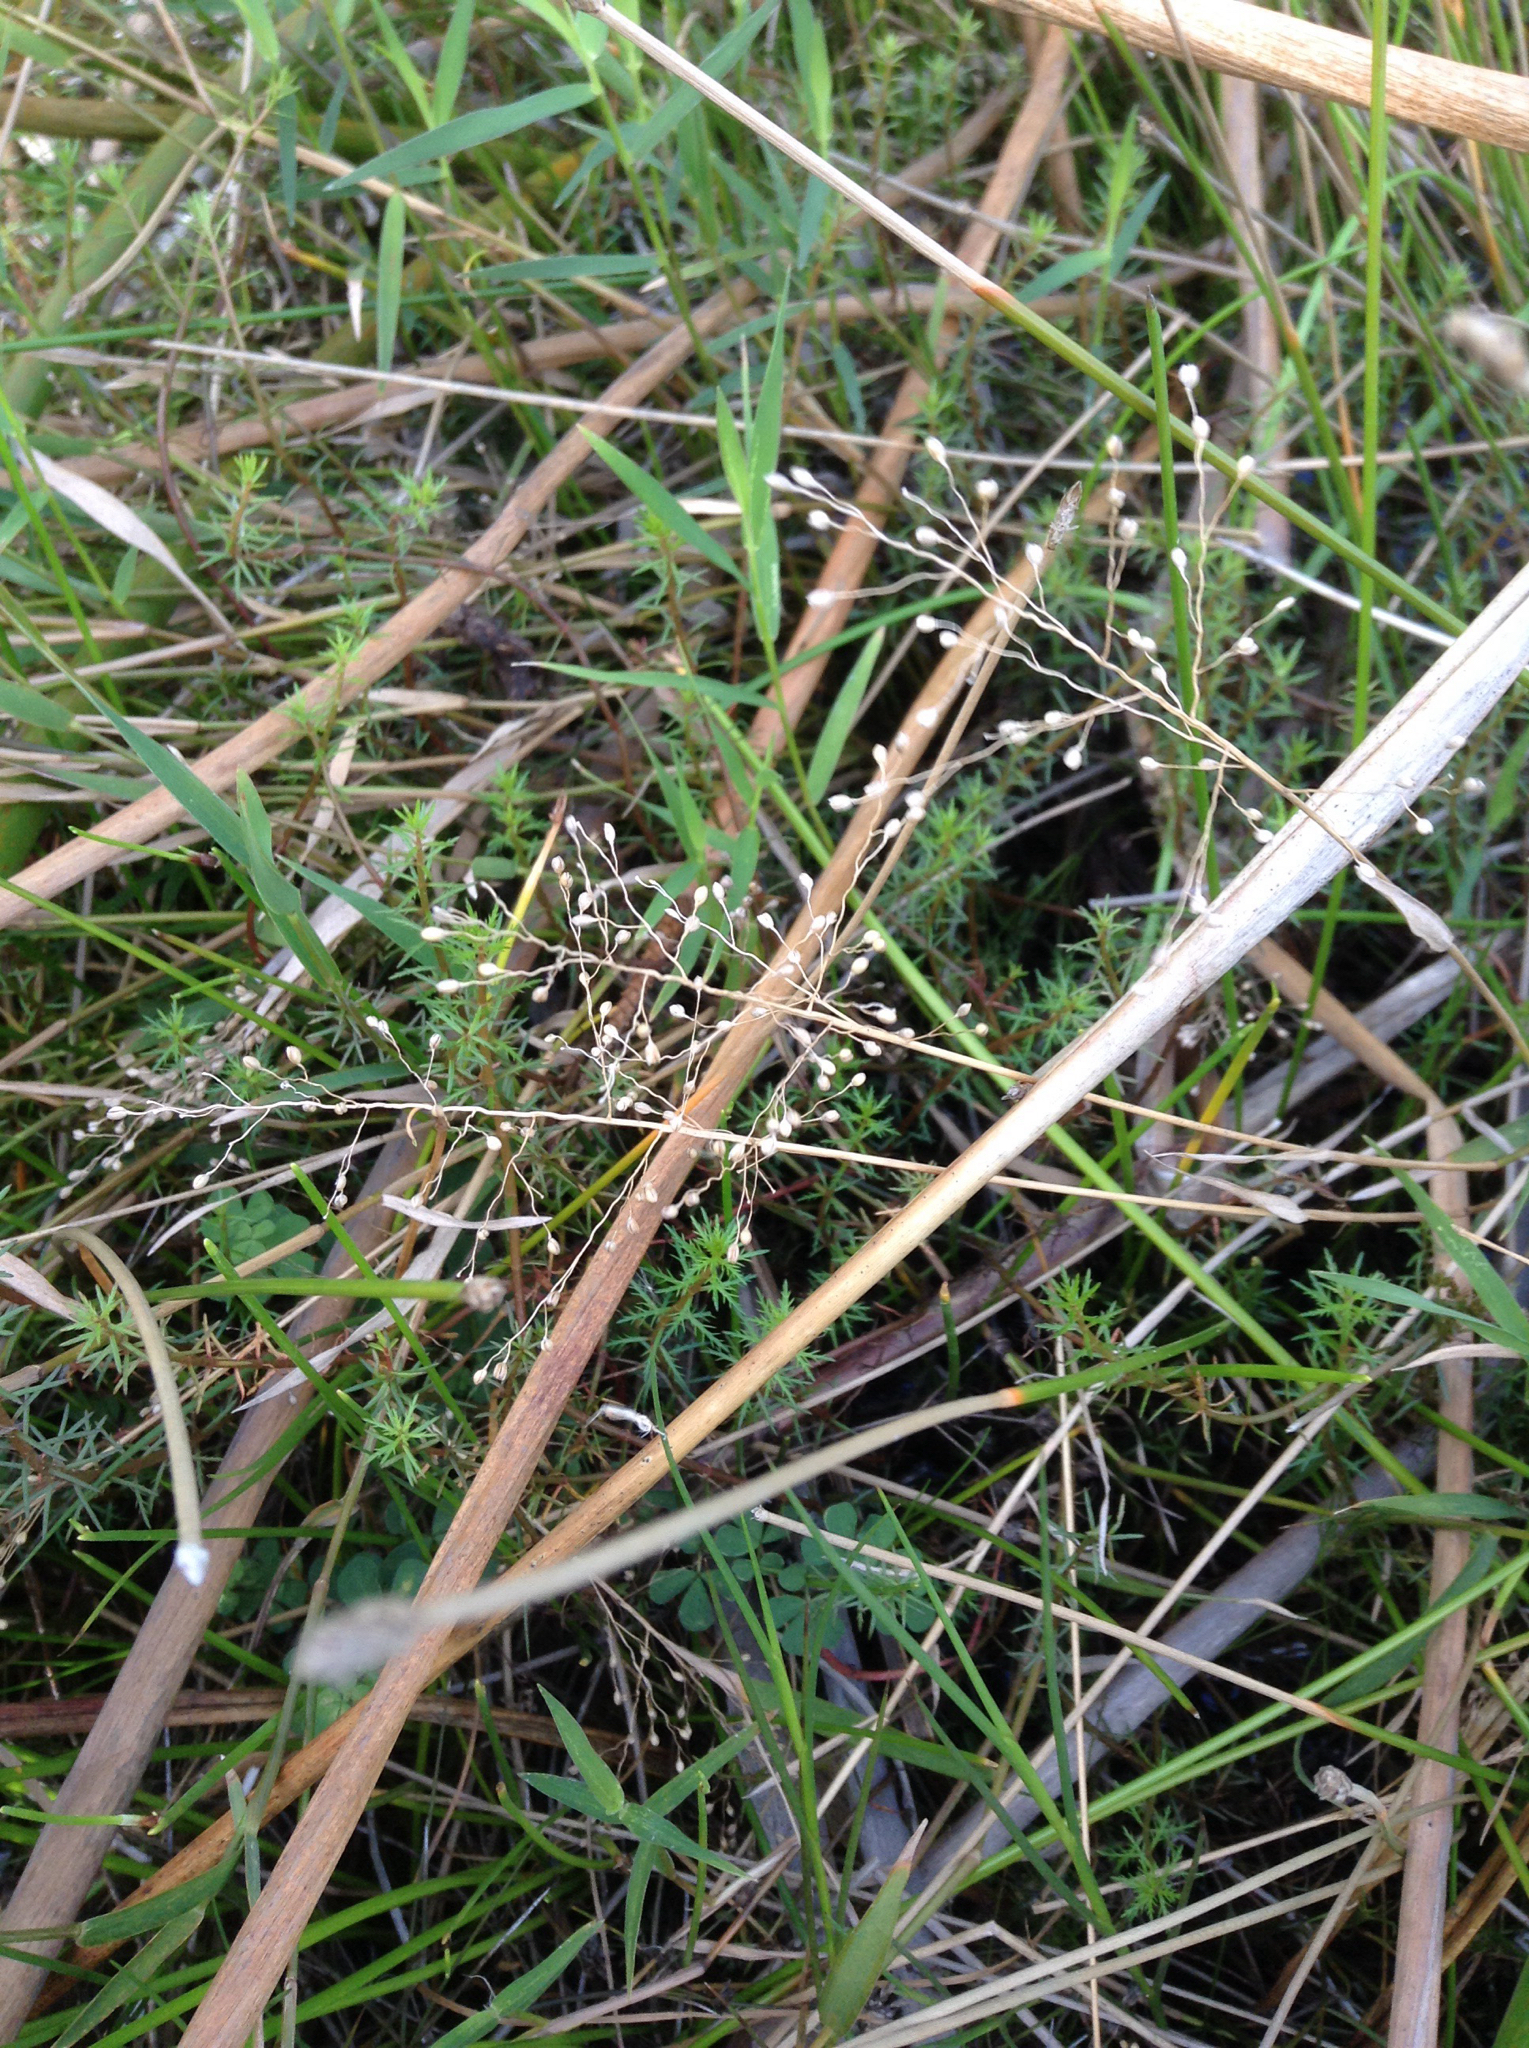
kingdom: Plantae
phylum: Tracheophyta
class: Liliopsida
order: Poales
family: Poaceae
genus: Isachne
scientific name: Isachne globosa
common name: Swamp millet
